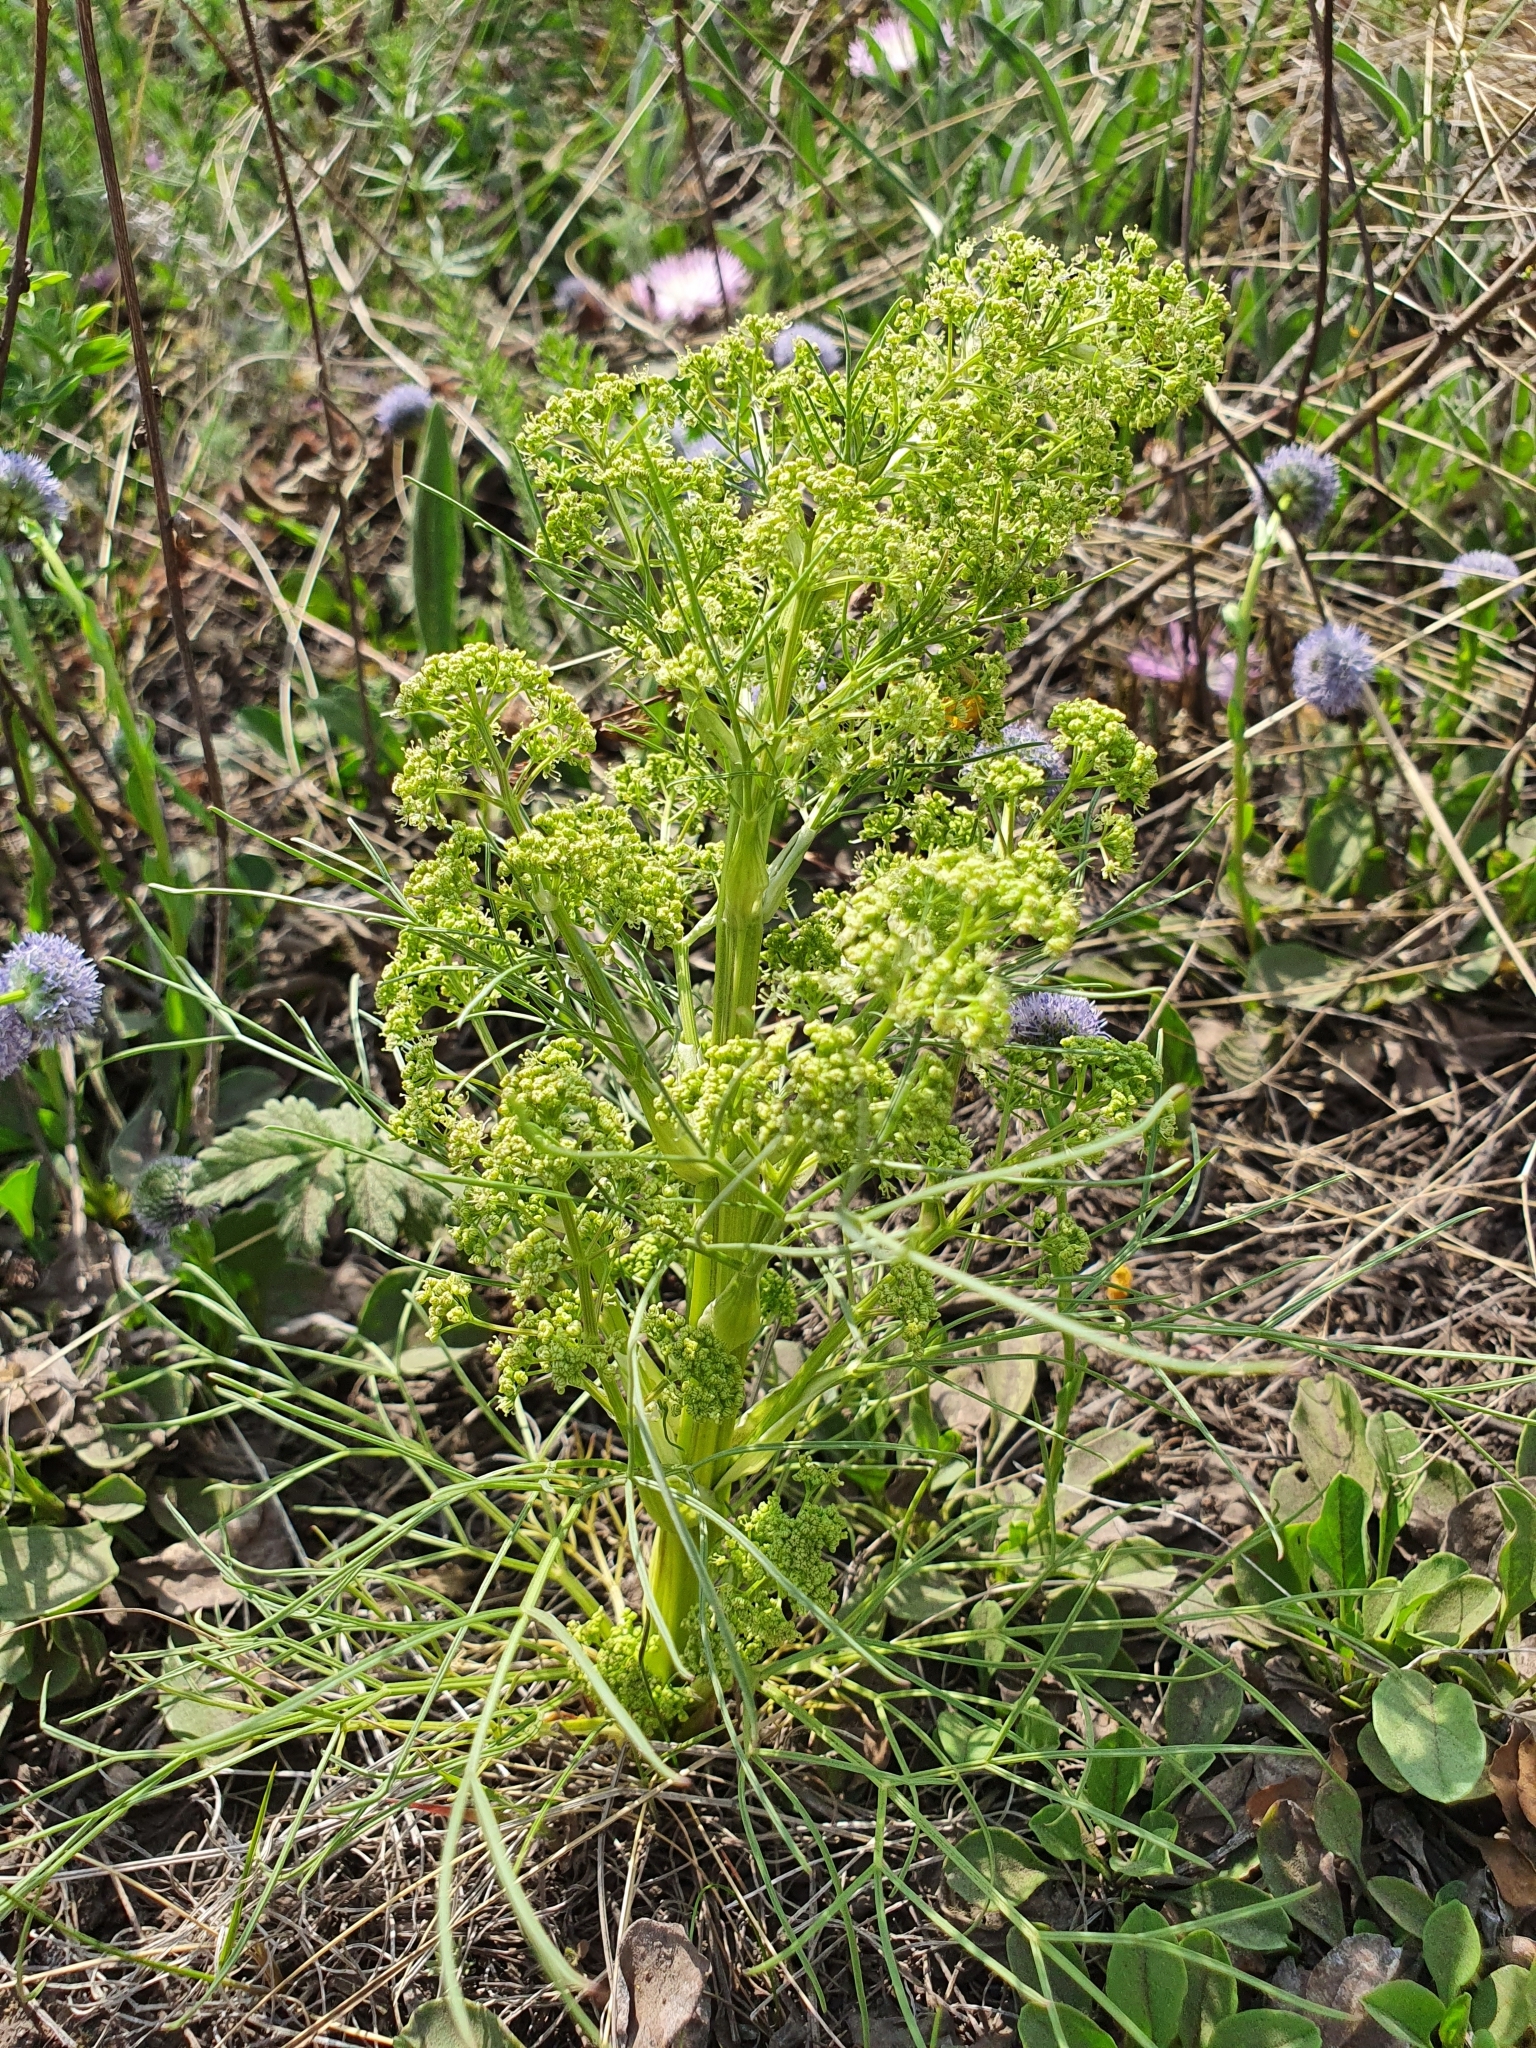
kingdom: Plantae
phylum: Tracheophyta
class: Magnoliopsida
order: Apiales
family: Apiaceae
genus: Trinia
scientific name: Trinia multicaulis
